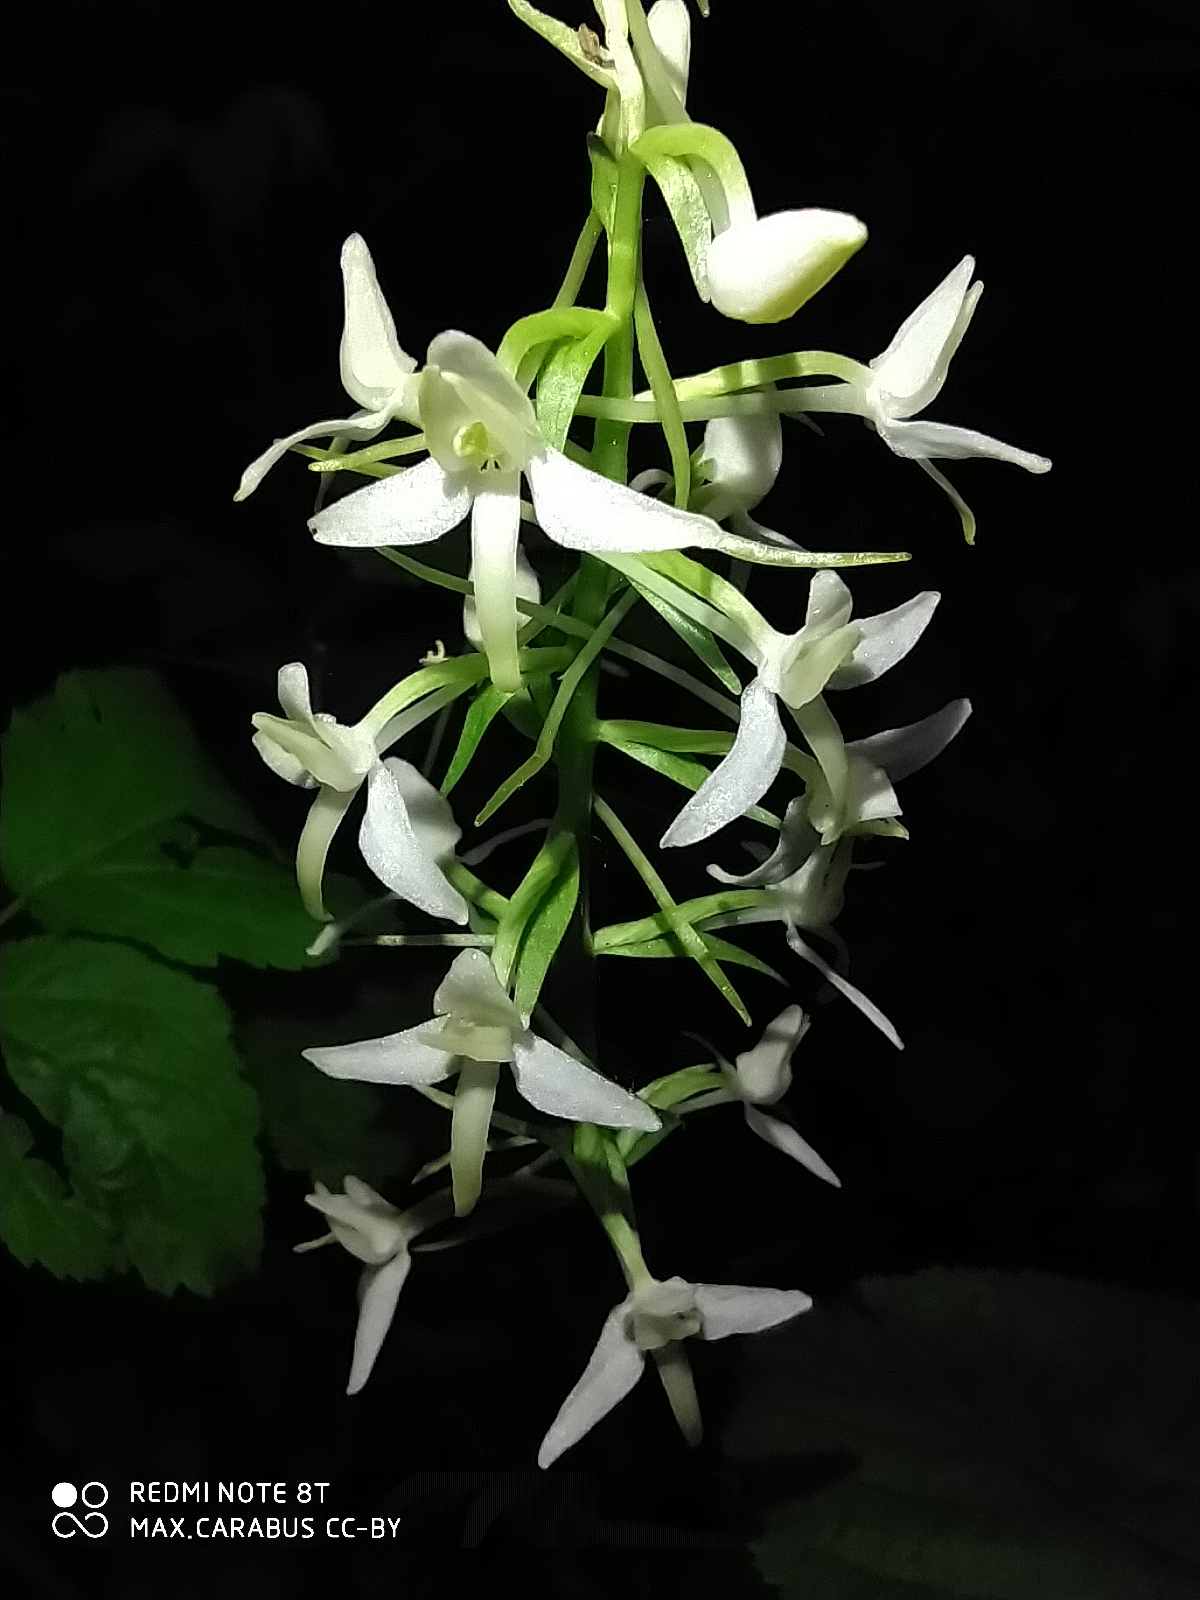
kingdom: Plantae
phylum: Tracheophyta
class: Liliopsida
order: Asparagales
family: Orchidaceae
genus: Platanthera
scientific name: Platanthera bifolia
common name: Lesser butterfly-orchid
